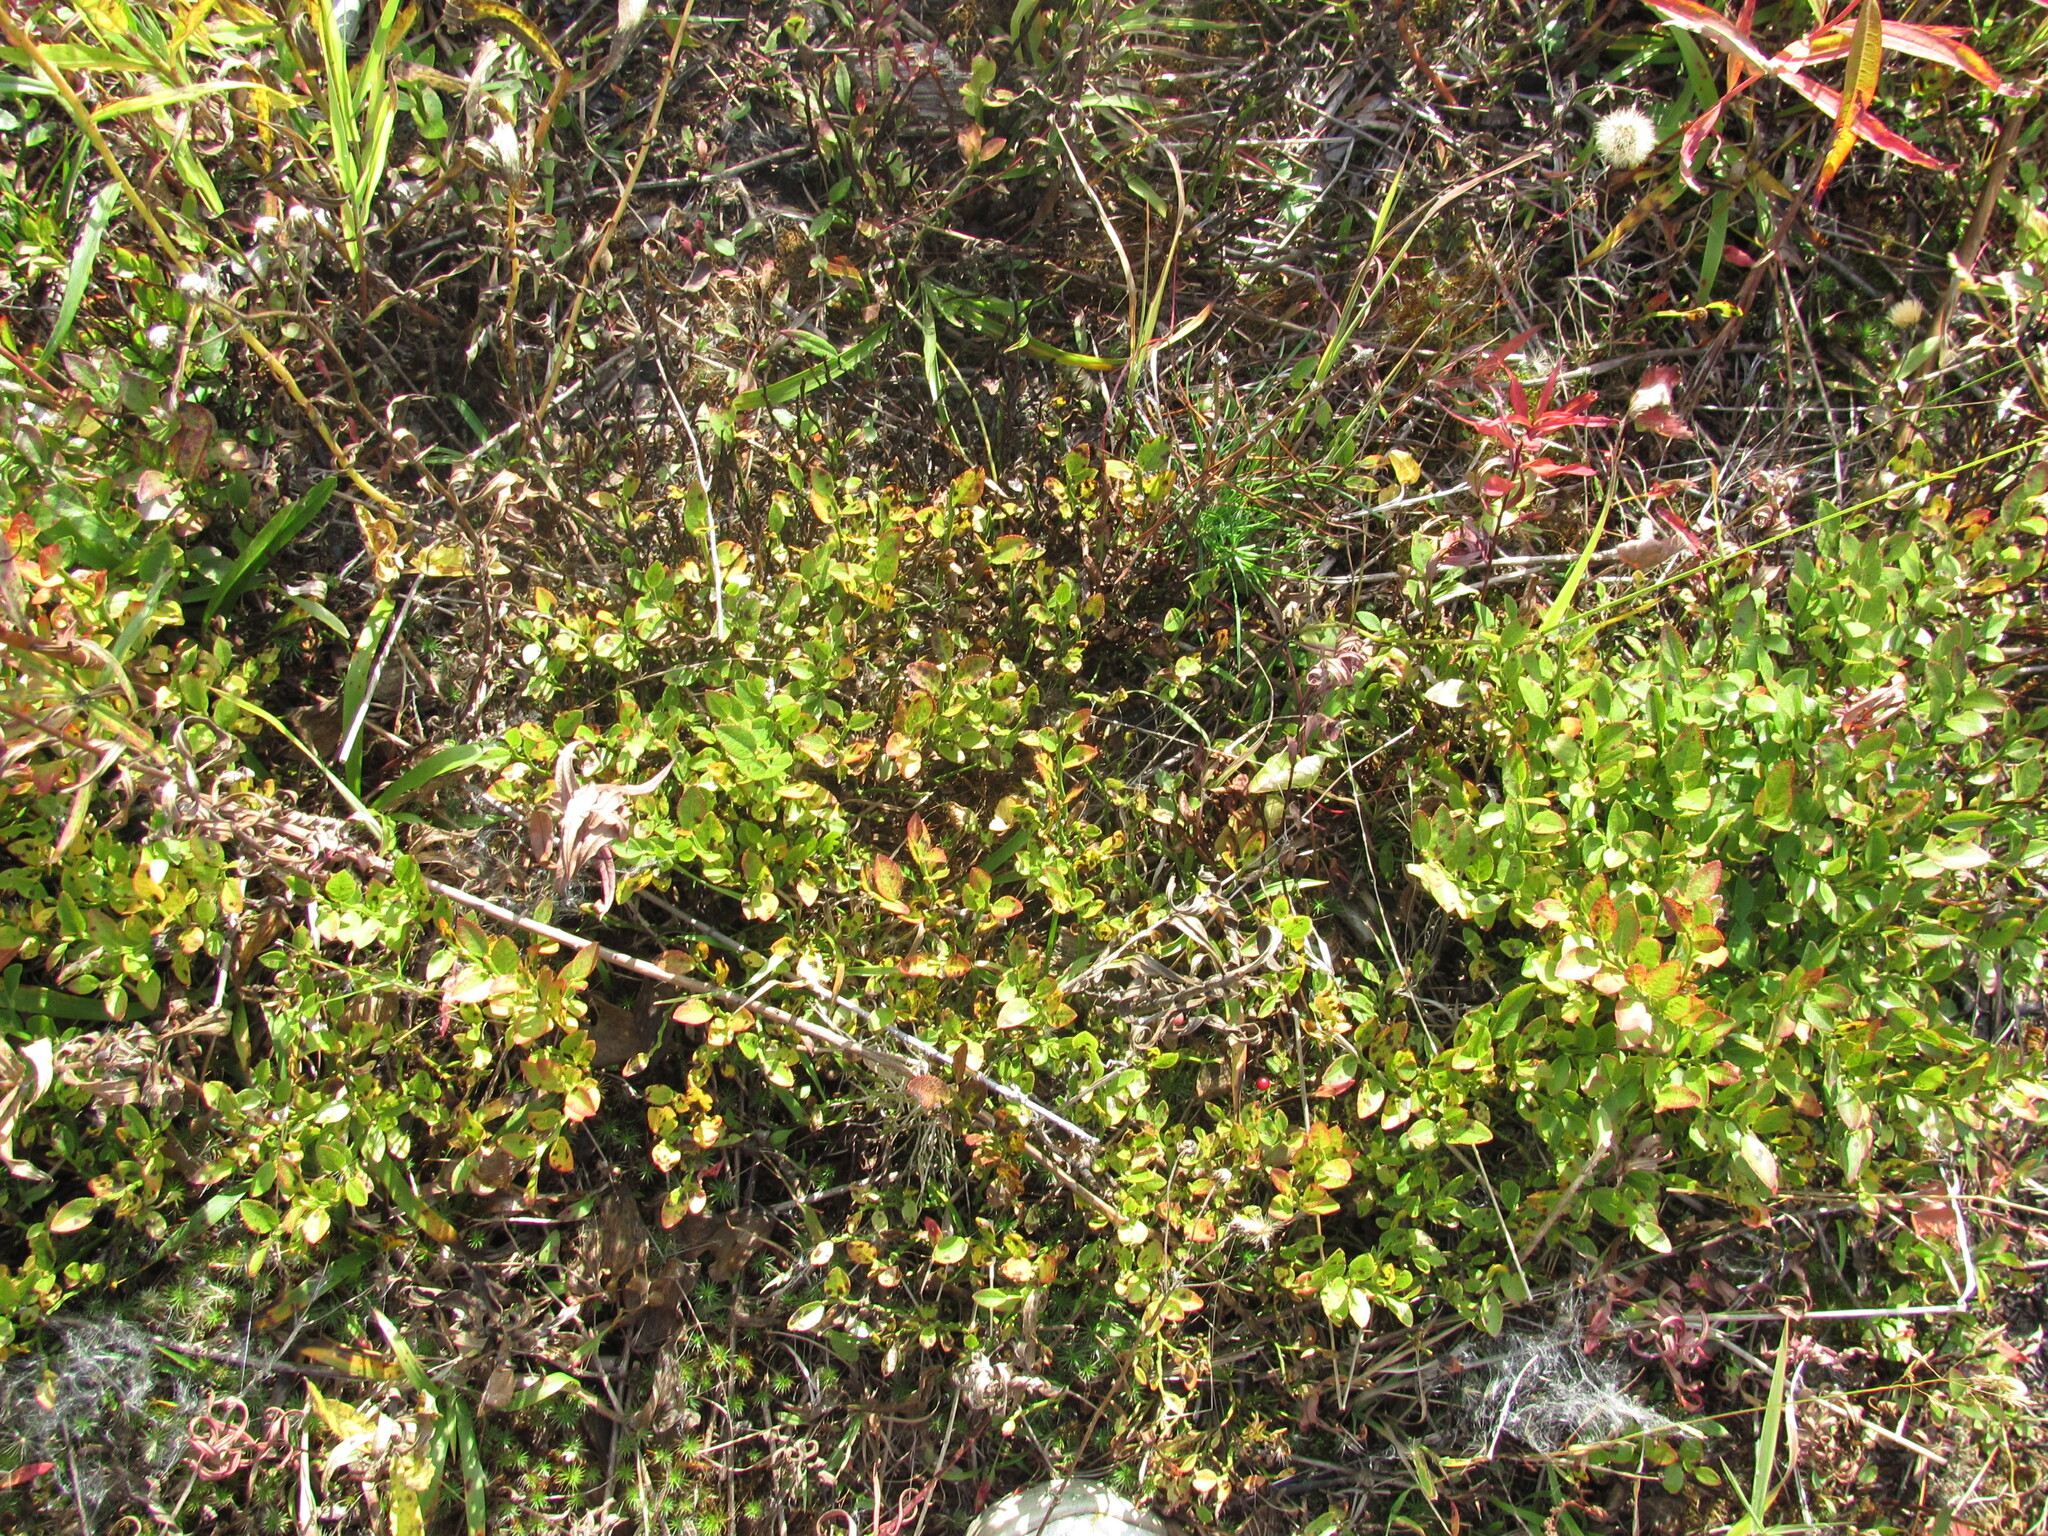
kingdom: Plantae
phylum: Tracheophyta
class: Magnoliopsida
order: Ericales
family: Ericaceae
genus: Vaccinium
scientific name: Vaccinium myrtillus
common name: Bilberry
